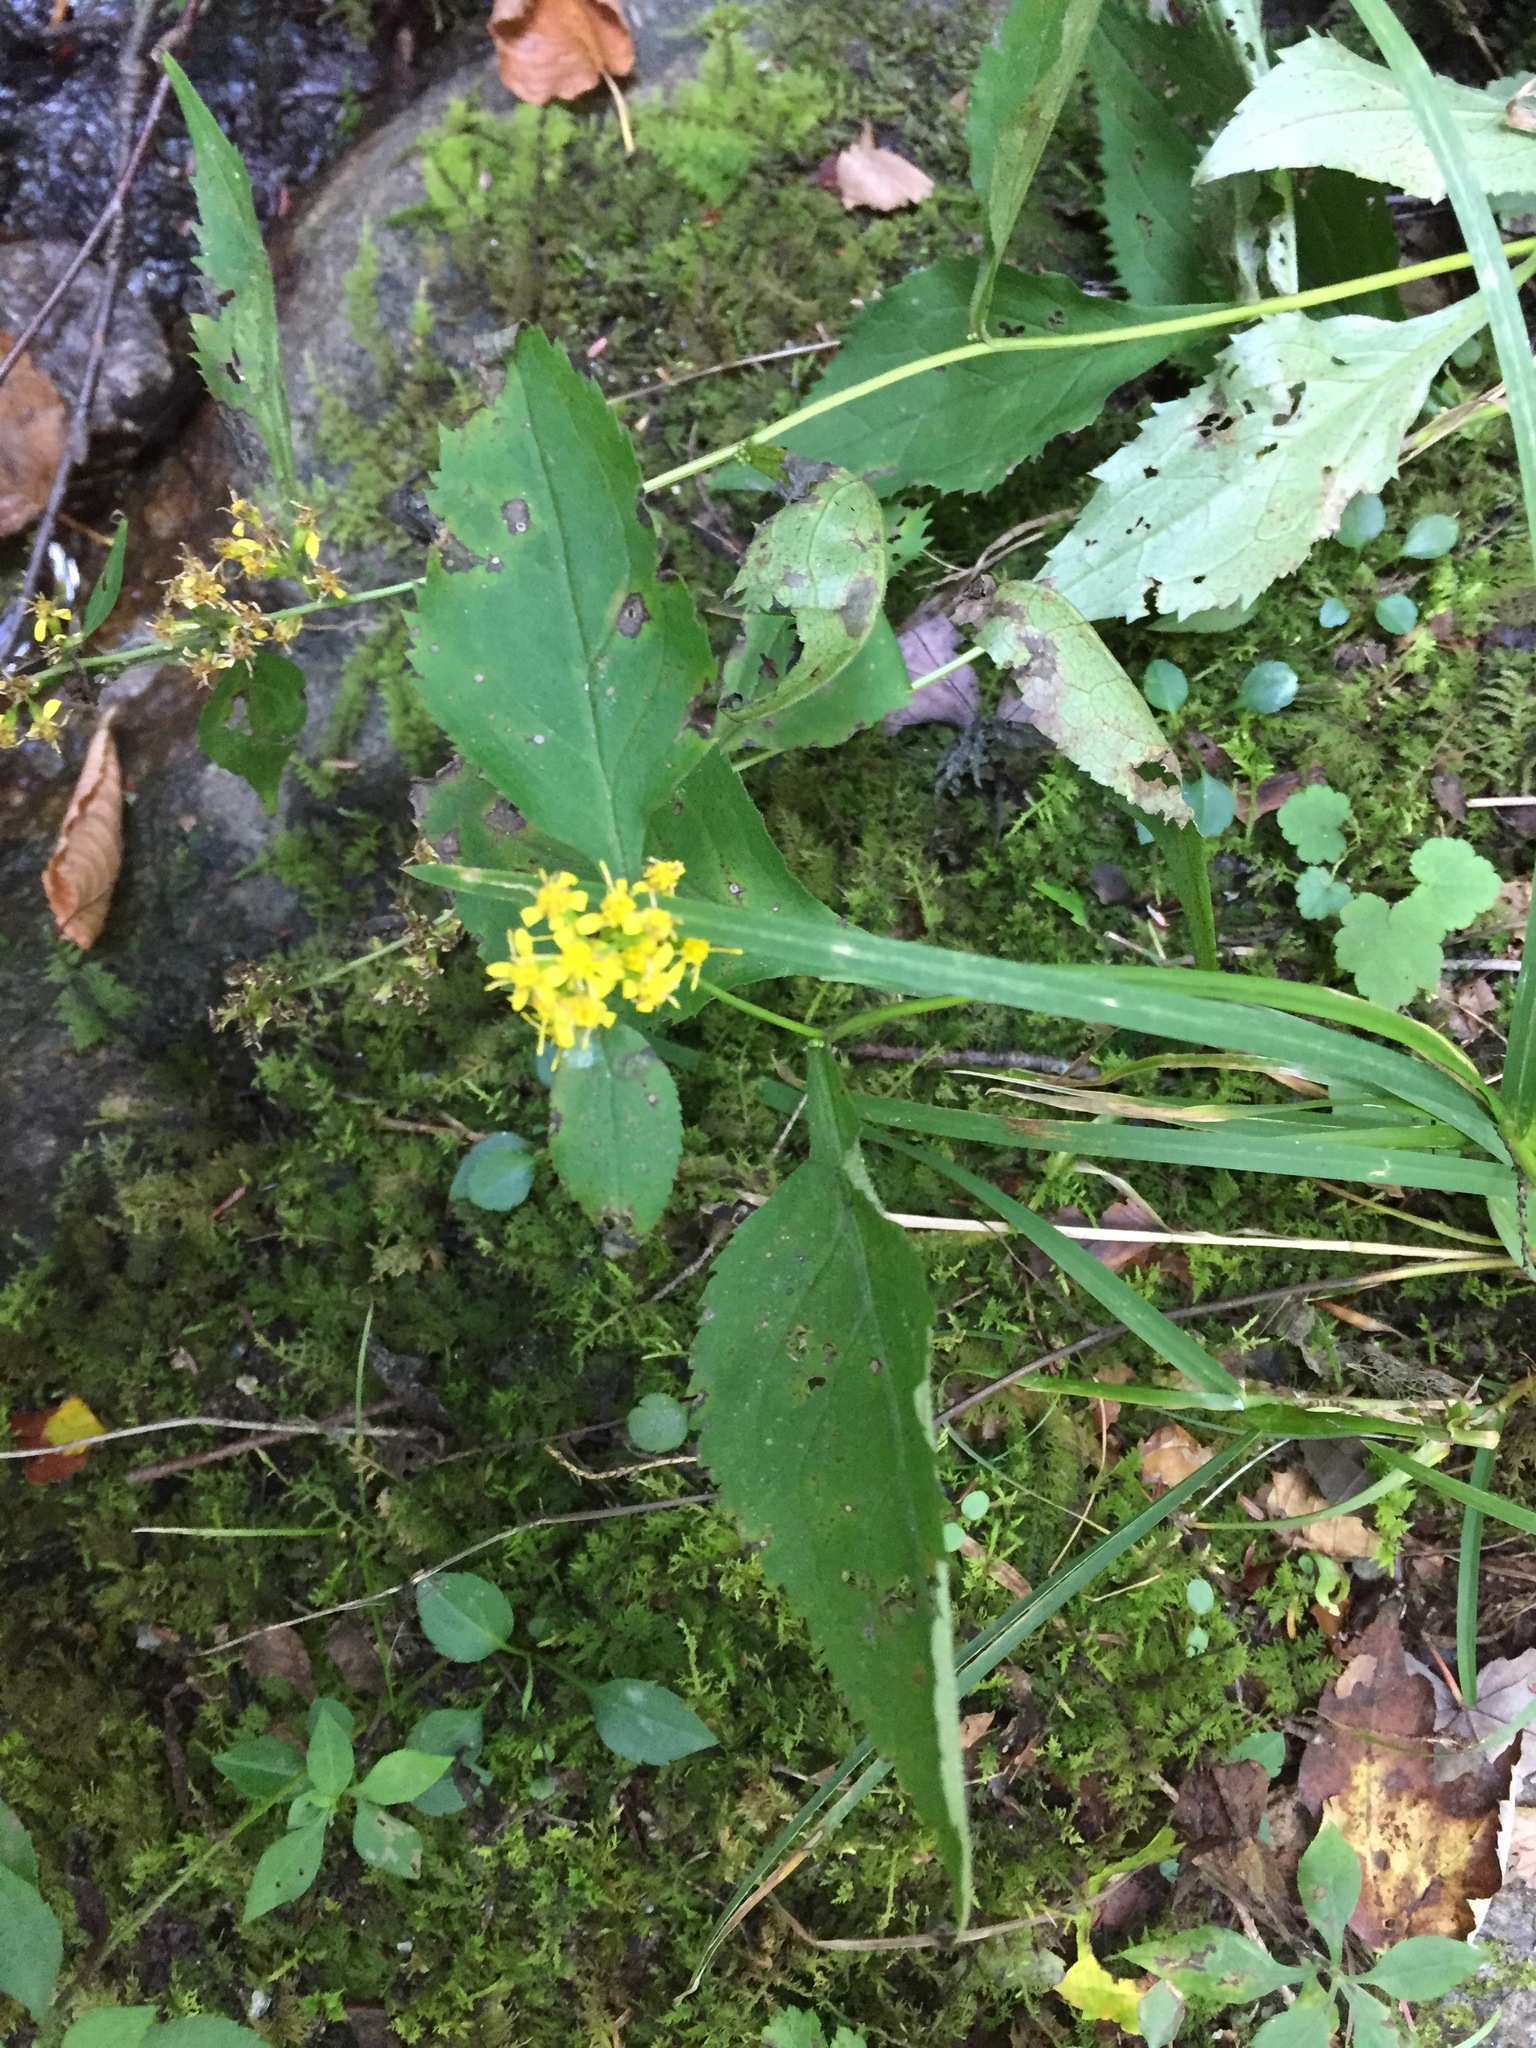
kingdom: Plantae
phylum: Tracheophyta
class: Magnoliopsida
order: Asterales
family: Asteraceae
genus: Solidago
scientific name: Solidago flexicaulis
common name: Zig-zag goldenrod
